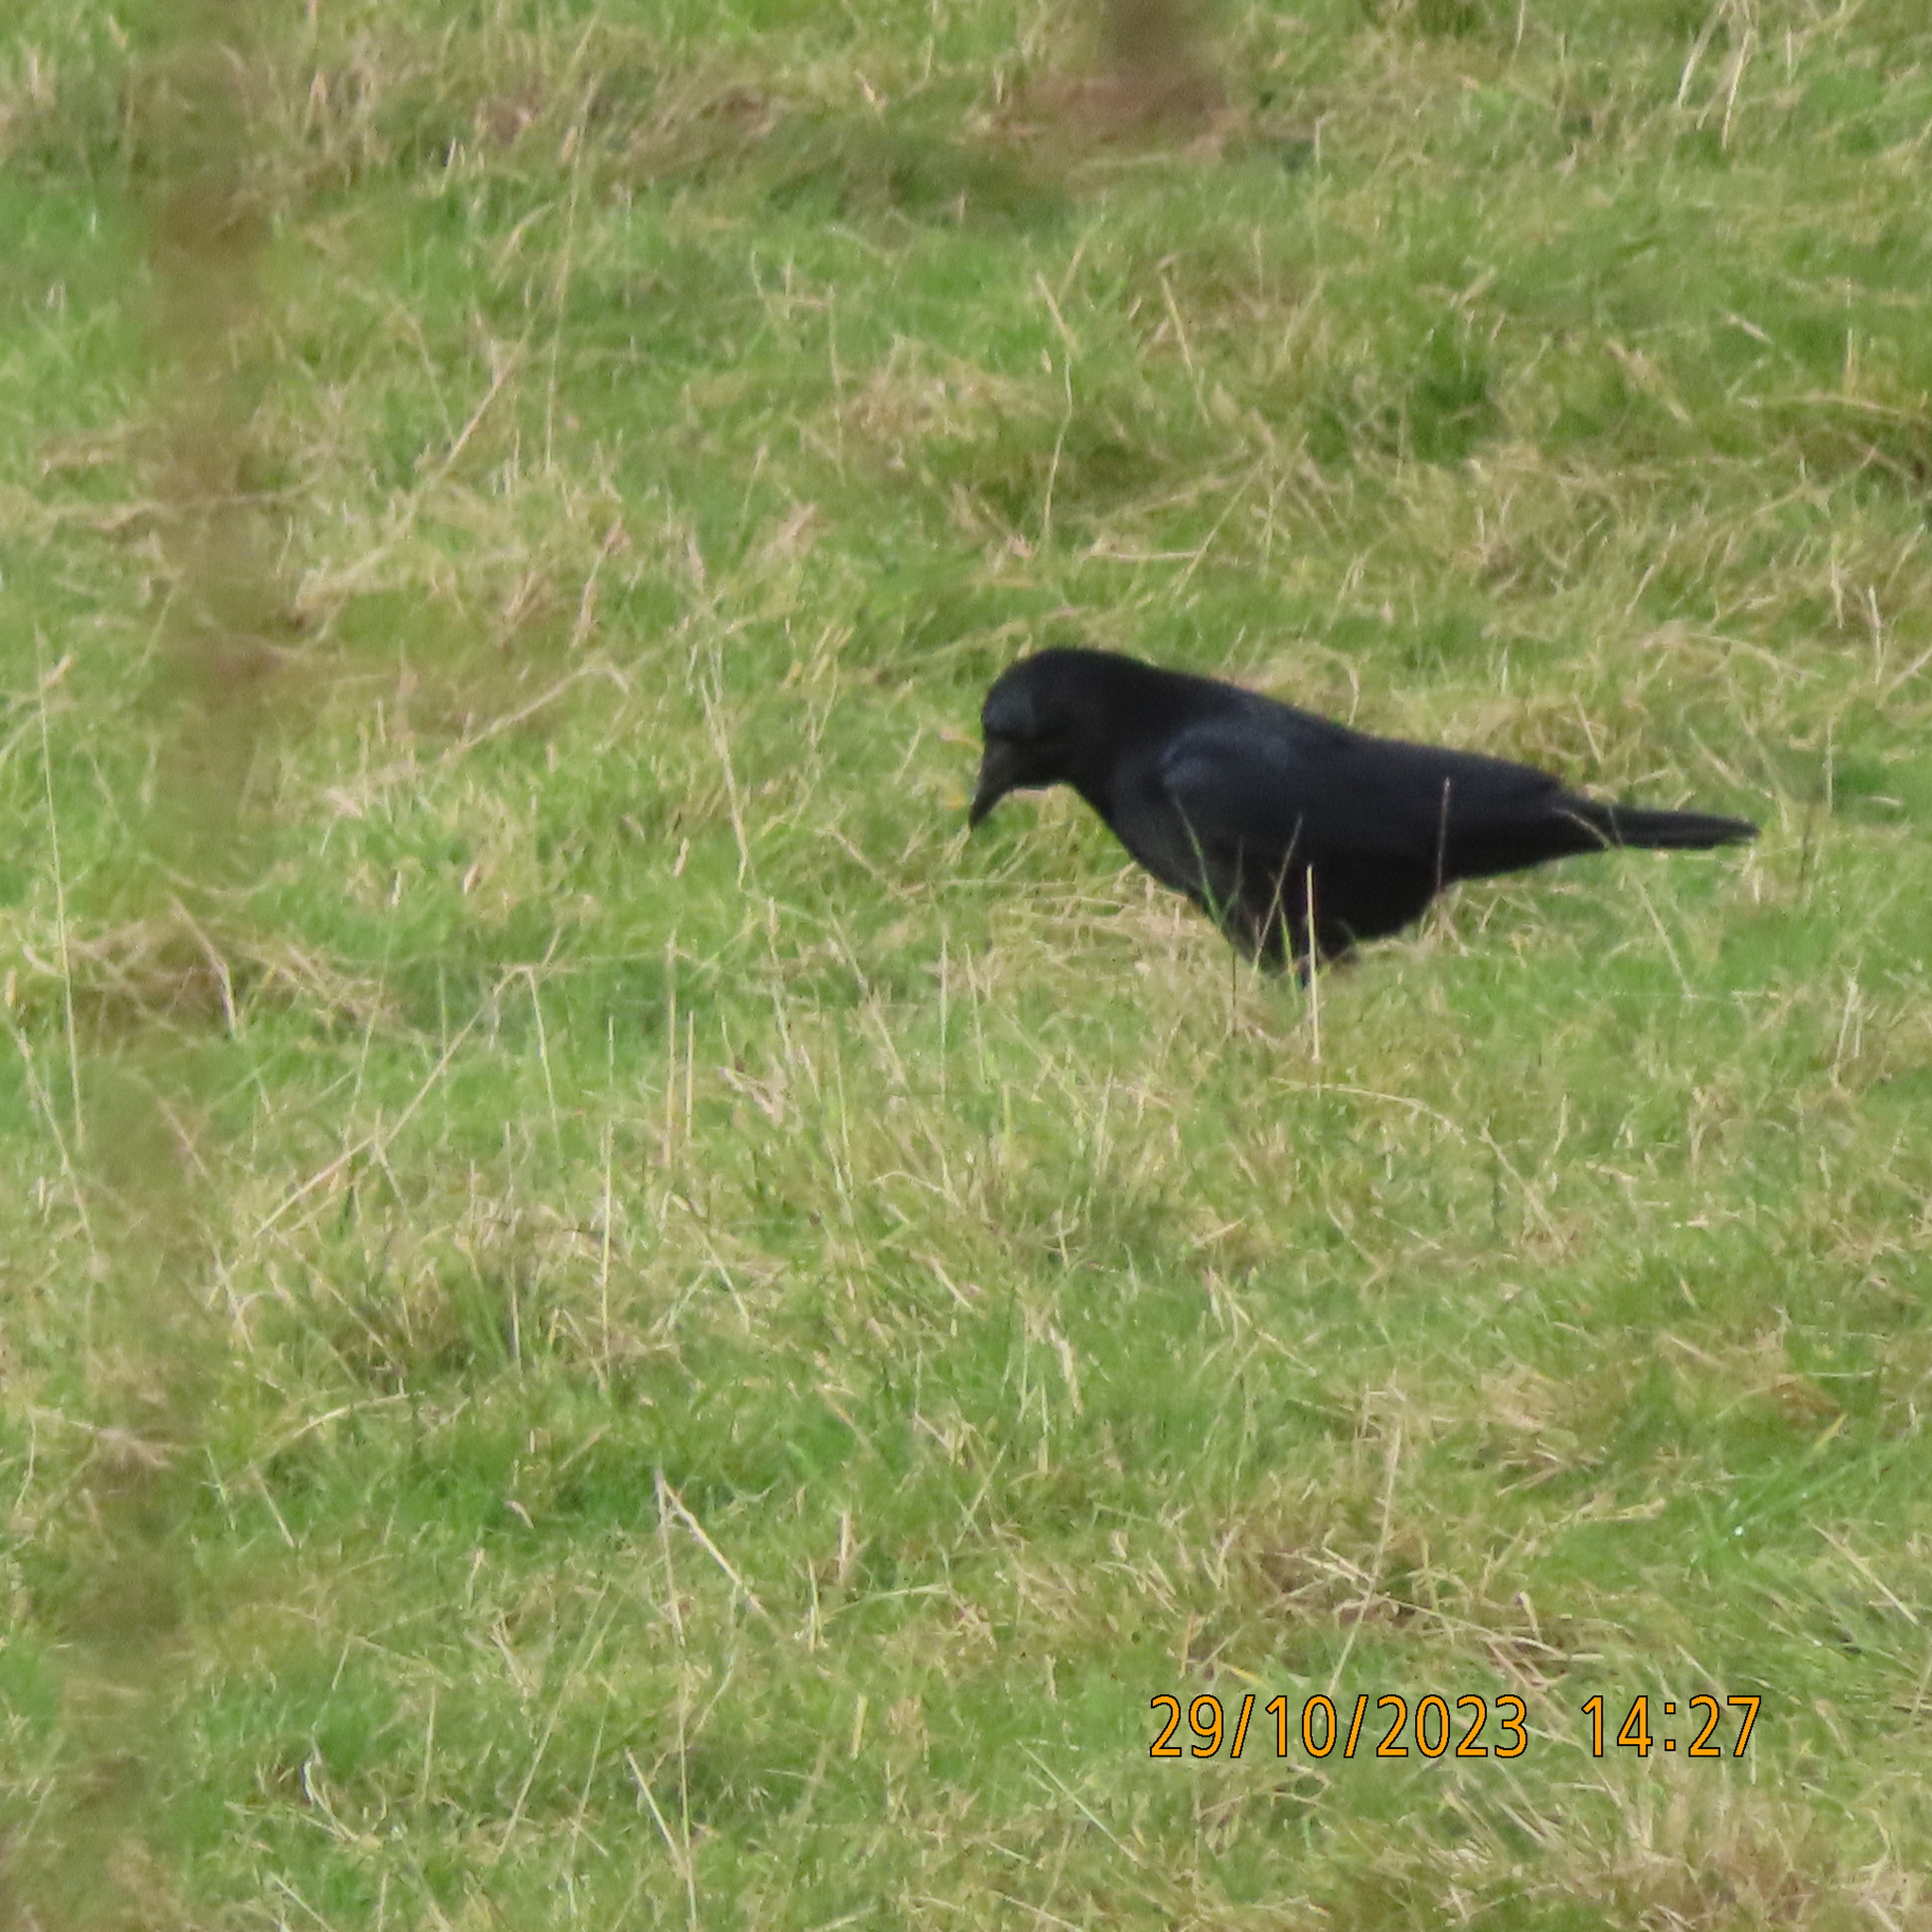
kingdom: Animalia
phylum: Chordata
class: Aves
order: Passeriformes
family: Corvidae
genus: Corvus
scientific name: Corvus corone
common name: Carrion crow
